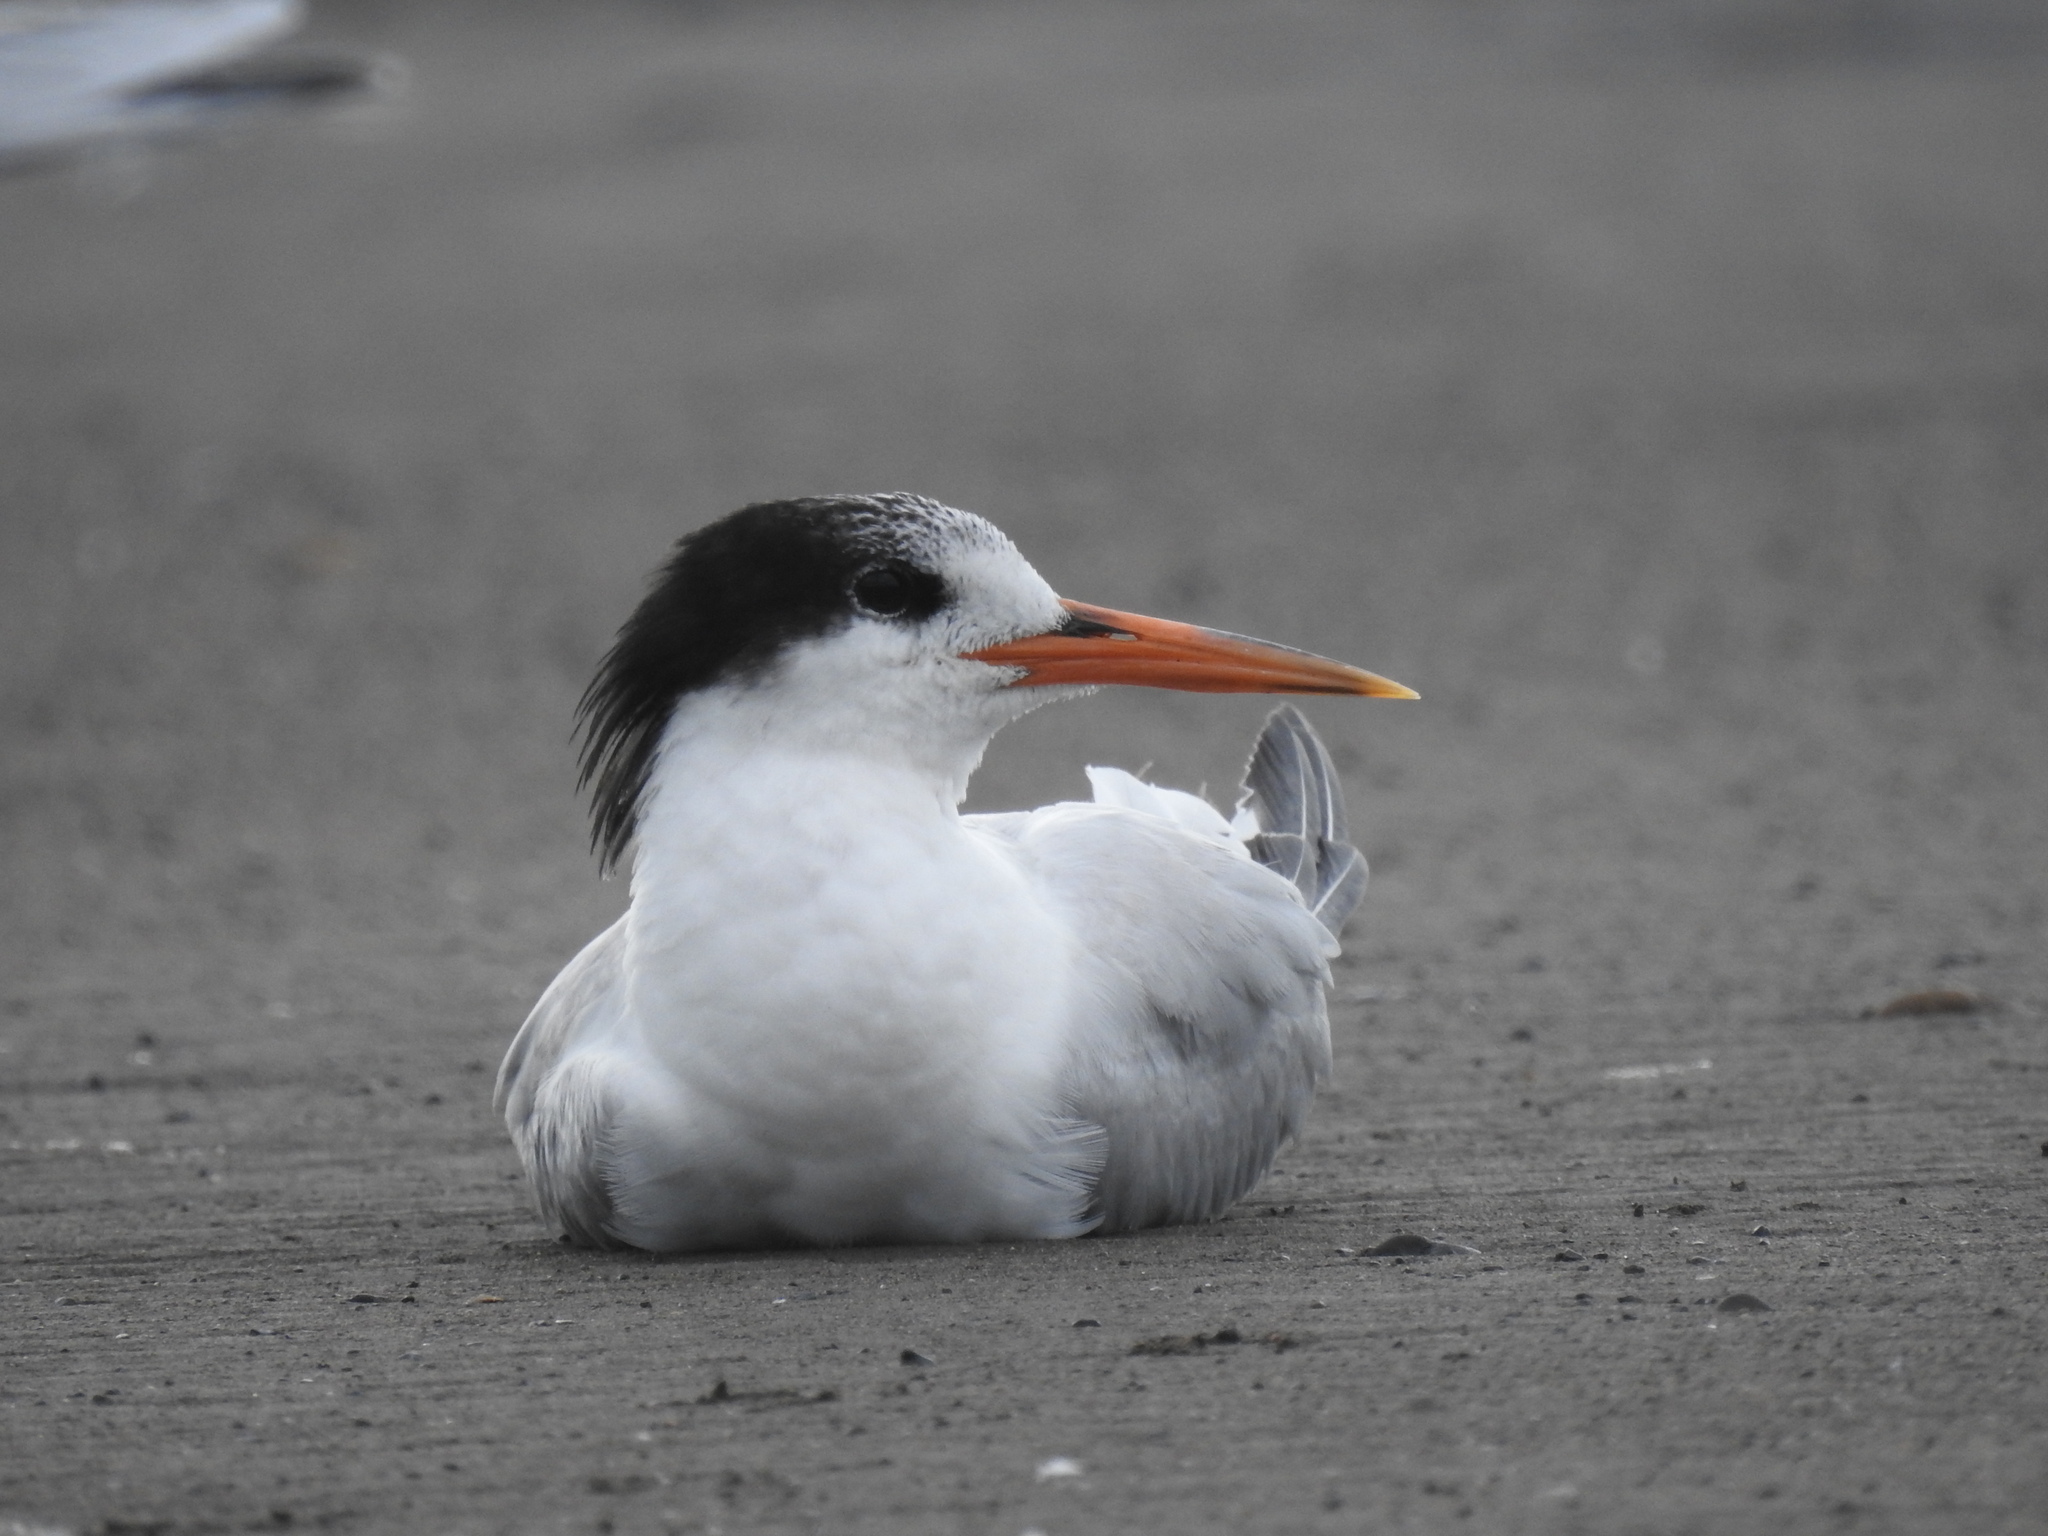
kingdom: Animalia
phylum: Chordata
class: Aves
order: Charadriiformes
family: Laridae
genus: Thalasseus
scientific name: Thalasseus elegans
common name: Elegant tern
